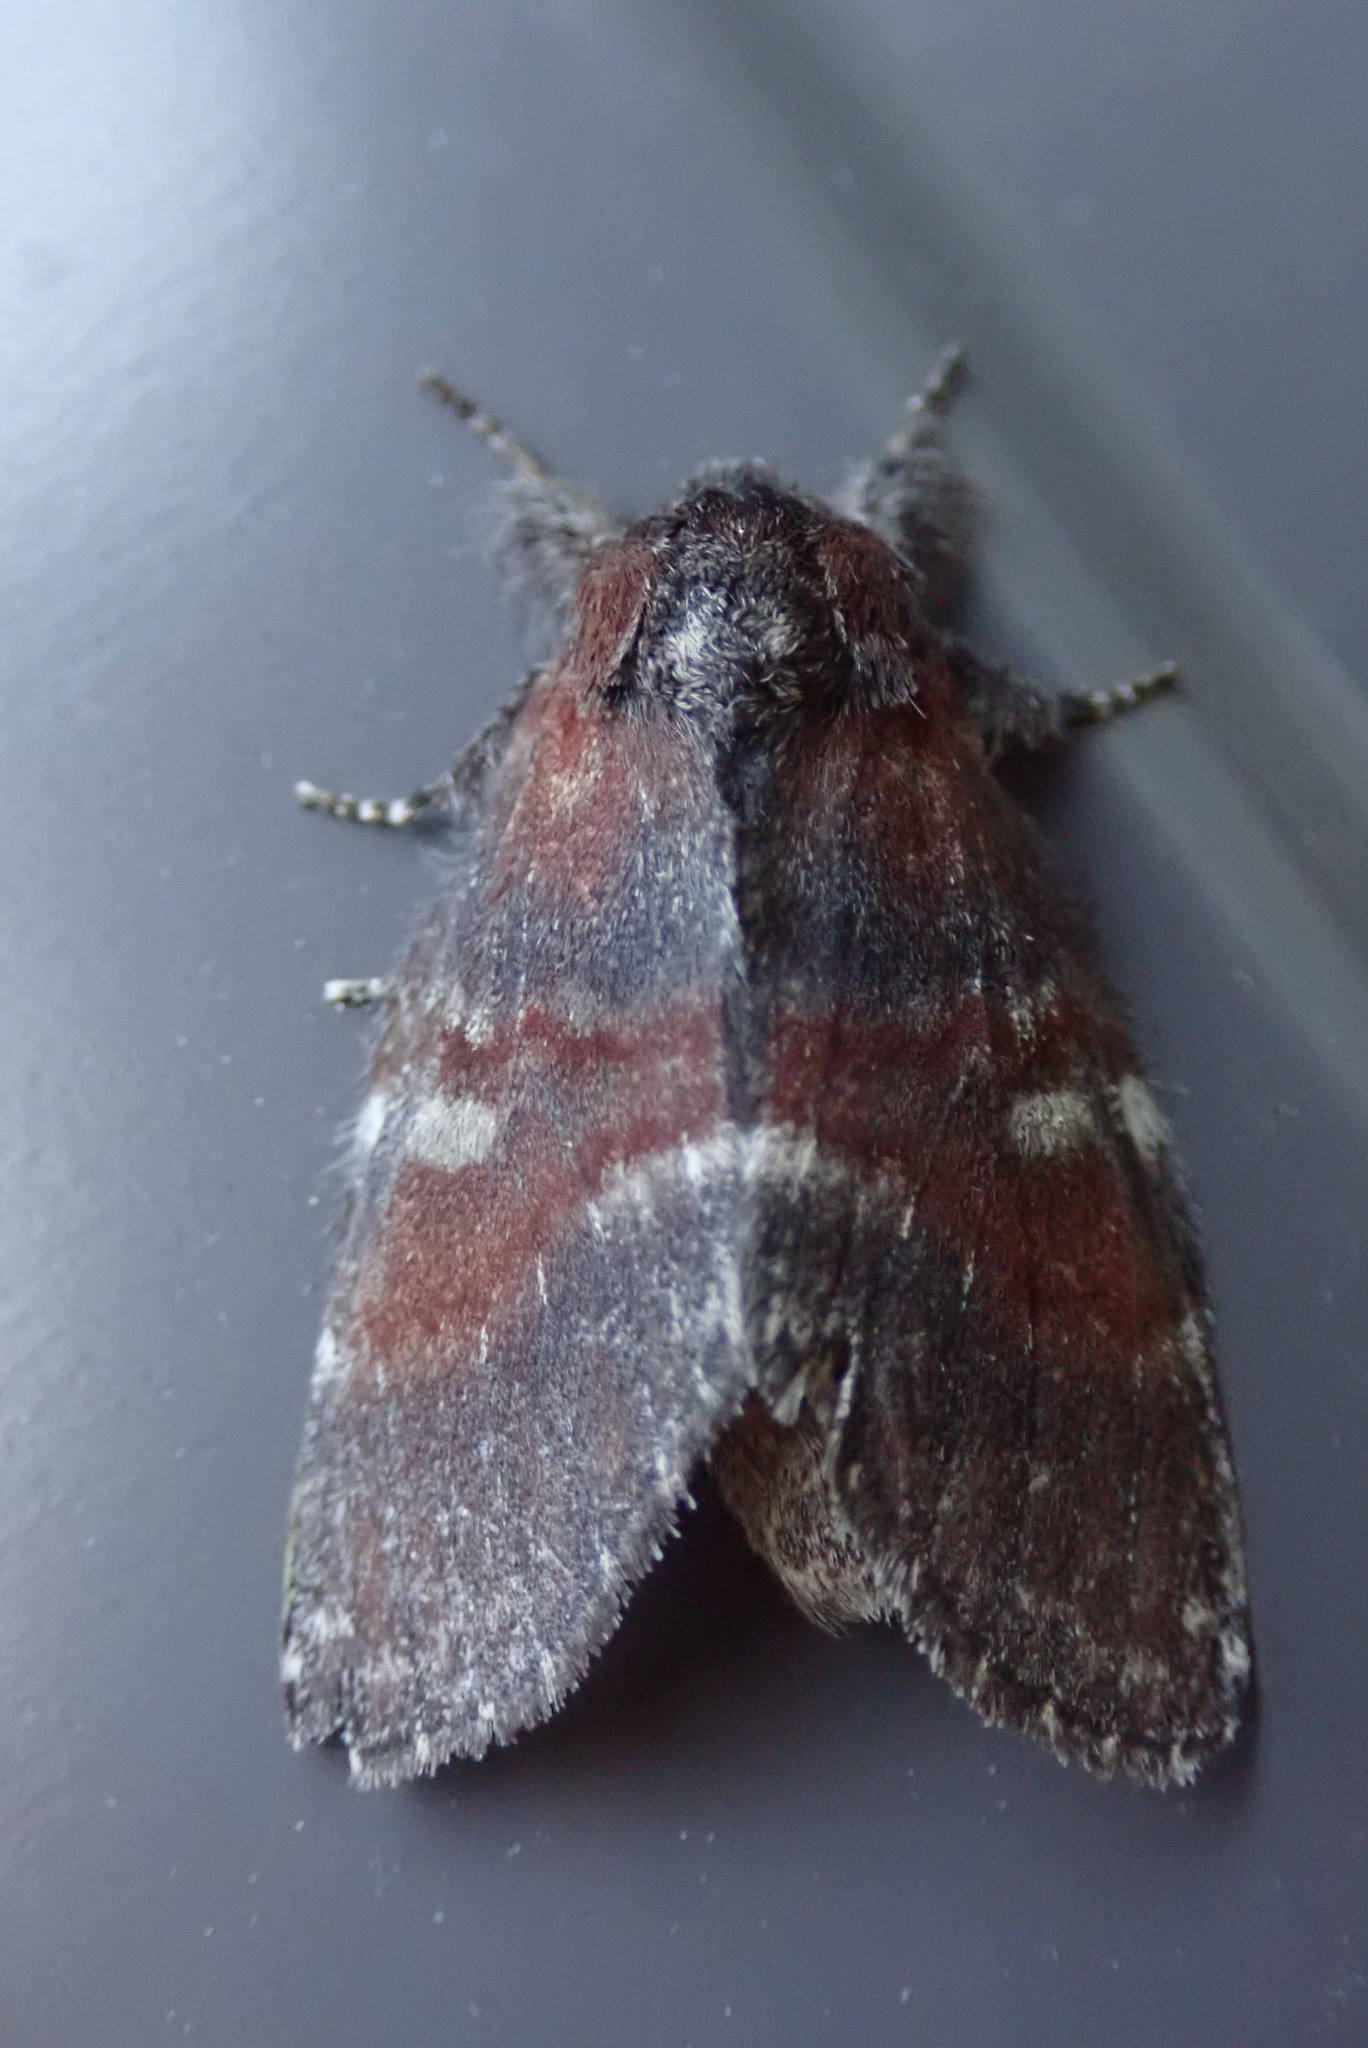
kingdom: Animalia
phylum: Arthropoda
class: Insecta
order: Lepidoptera
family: Notodontidae
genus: Peridea
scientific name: Peridea ferruginea
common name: Chocolate prominent
